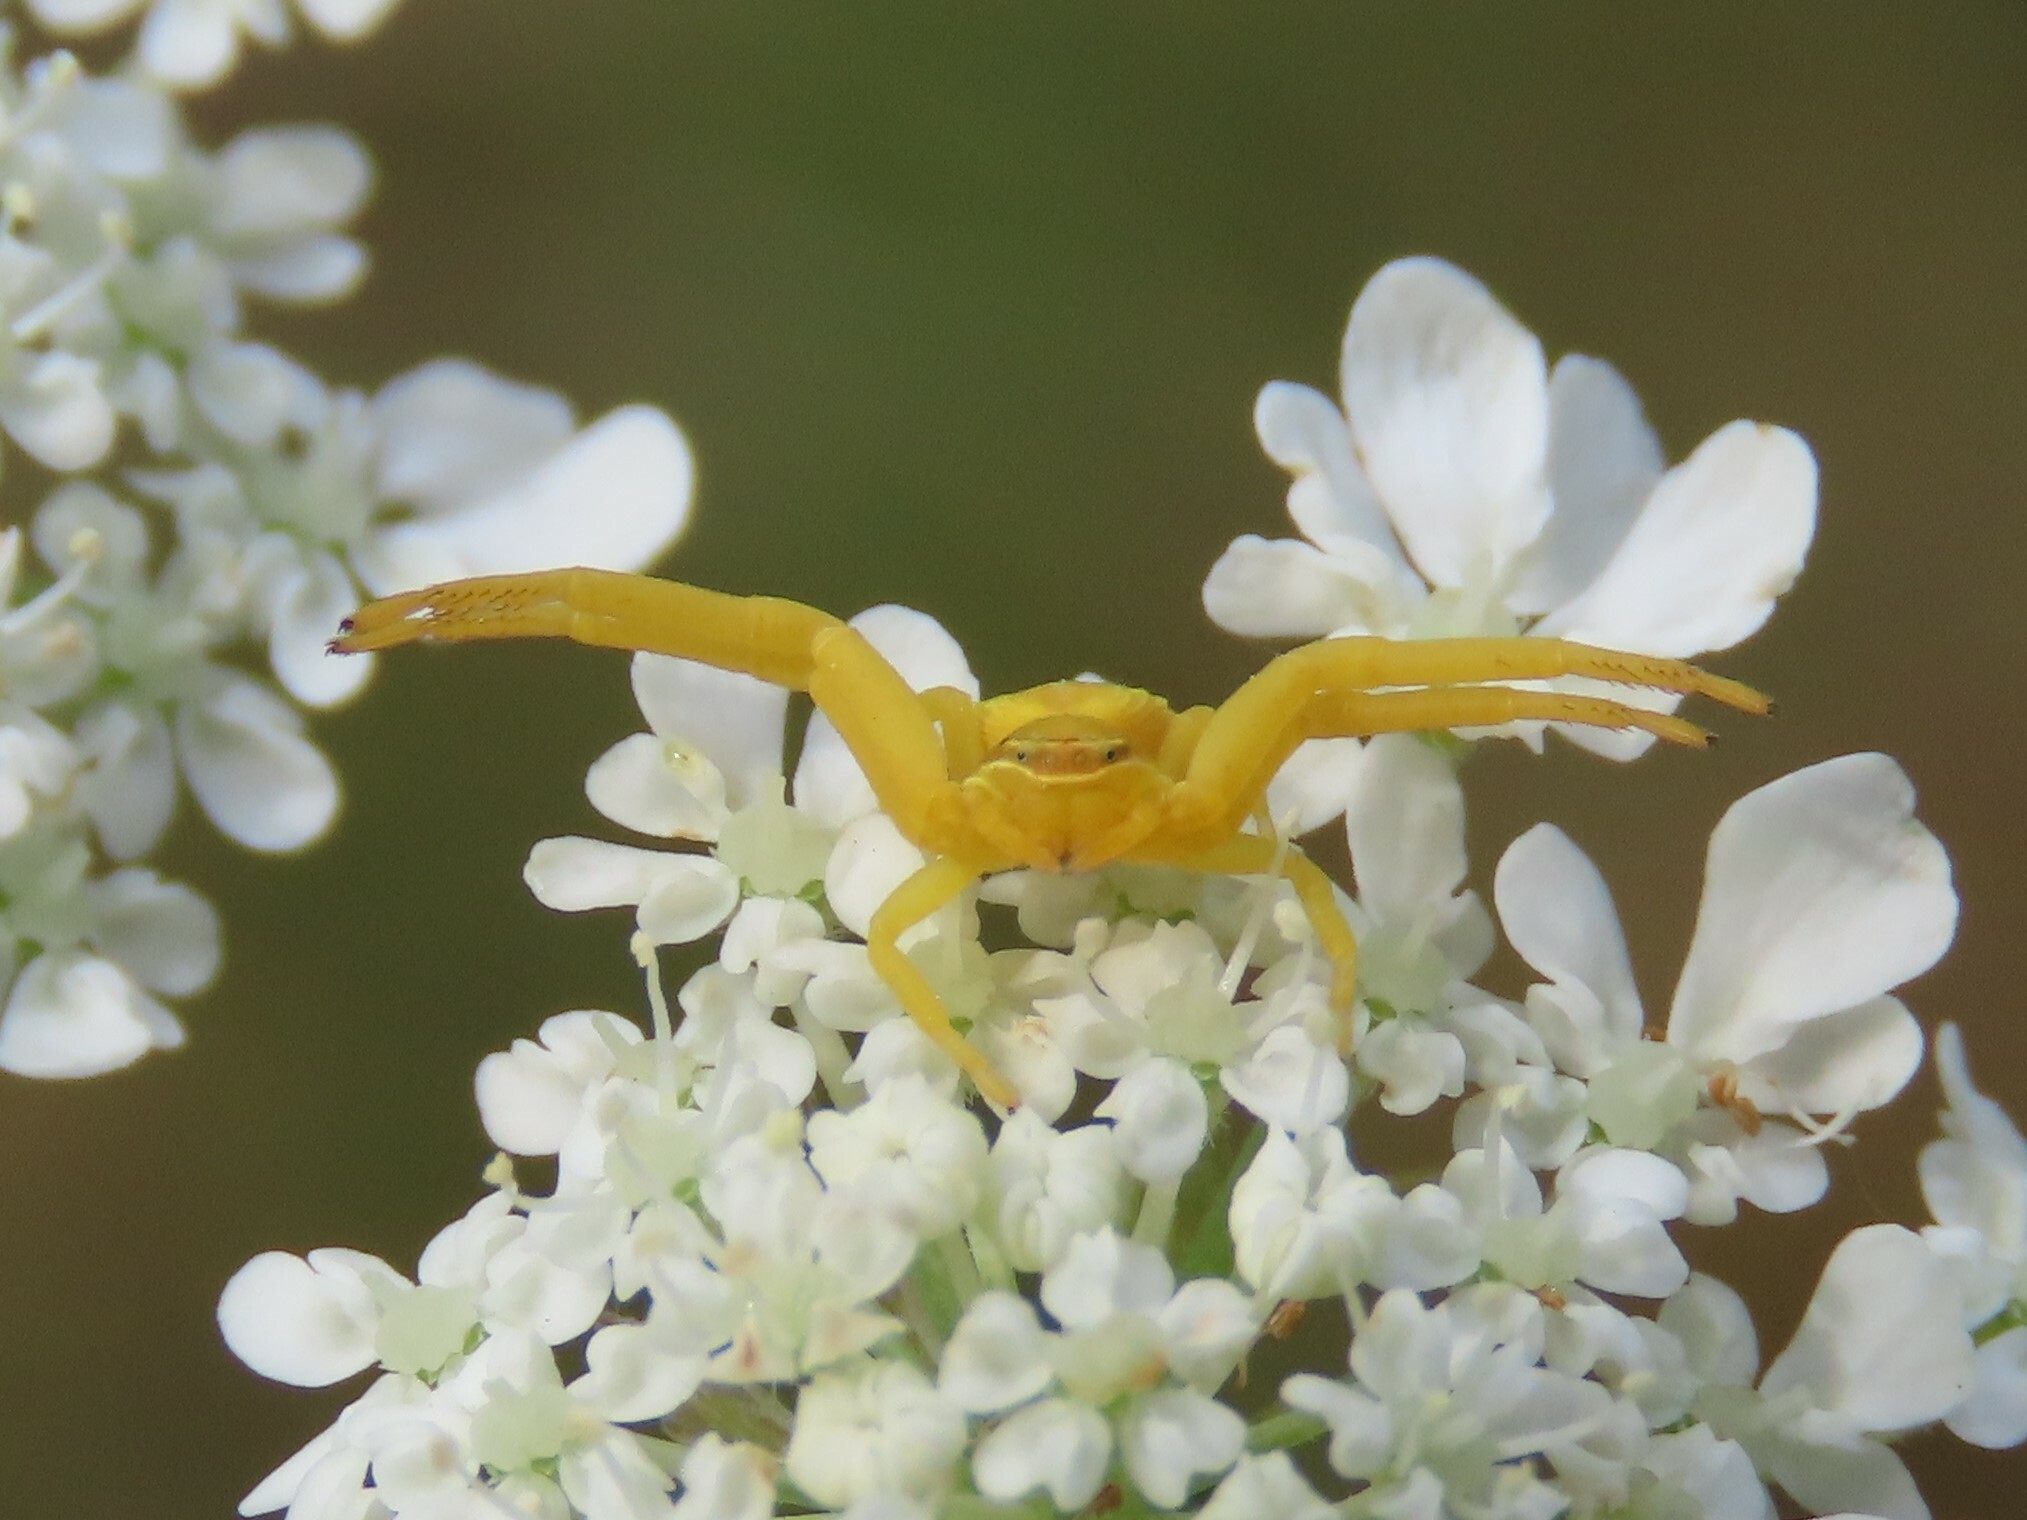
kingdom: Animalia
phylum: Arthropoda
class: Arachnida
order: Araneae
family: Thomisidae
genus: Misumenoides
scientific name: Misumenoides formosipes
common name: White-banded crab spider
